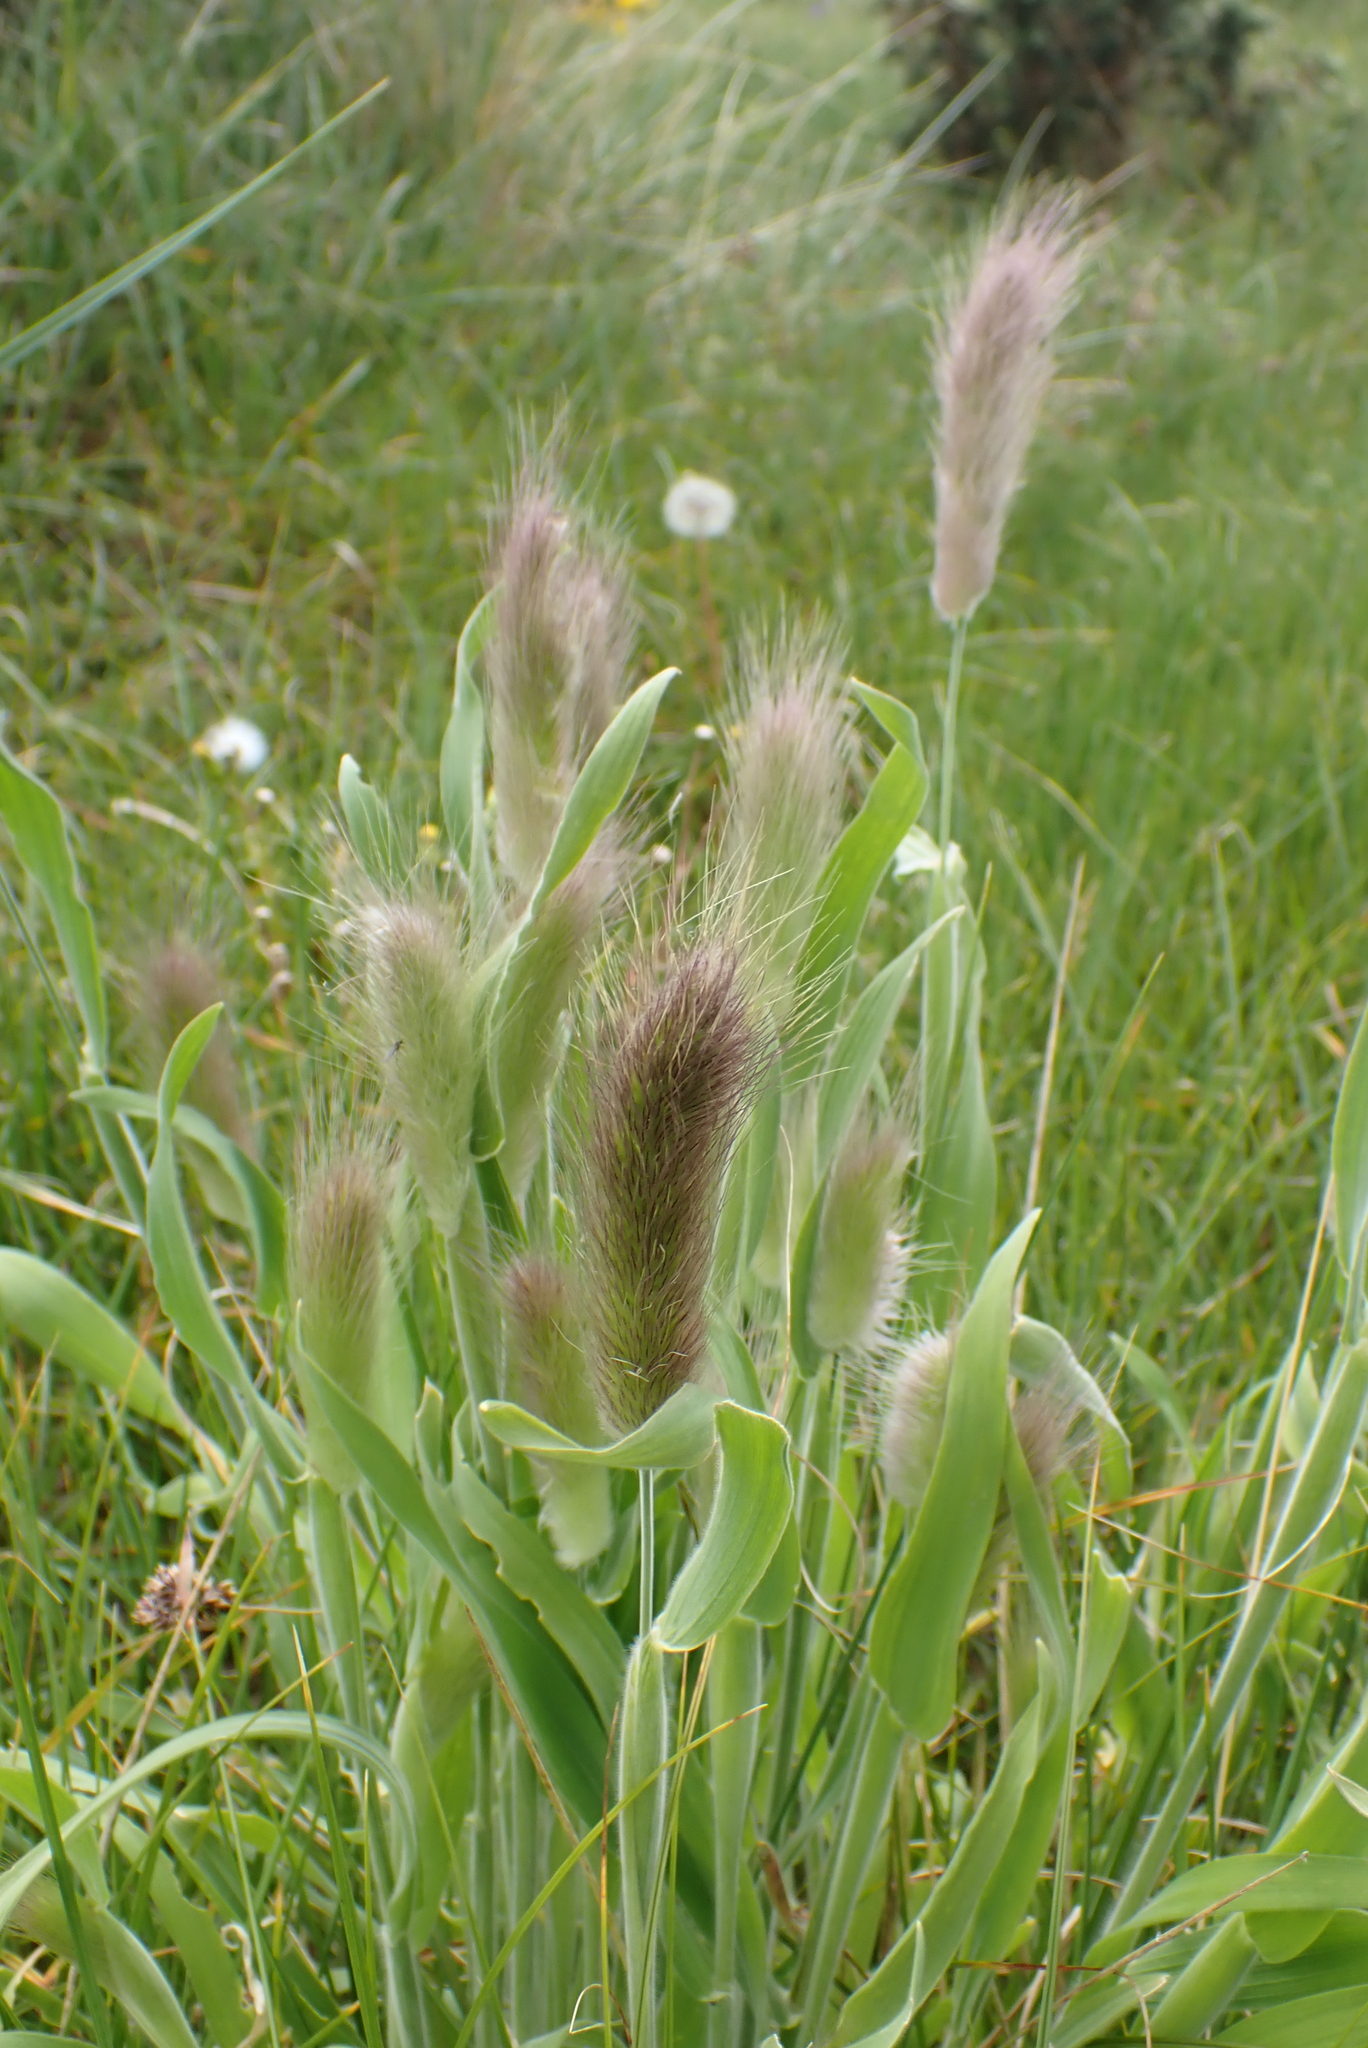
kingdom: Plantae
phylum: Tracheophyta
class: Liliopsida
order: Poales
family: Poaceae
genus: Lagurus
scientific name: Lagurus ovatus
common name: Hare's-tail
